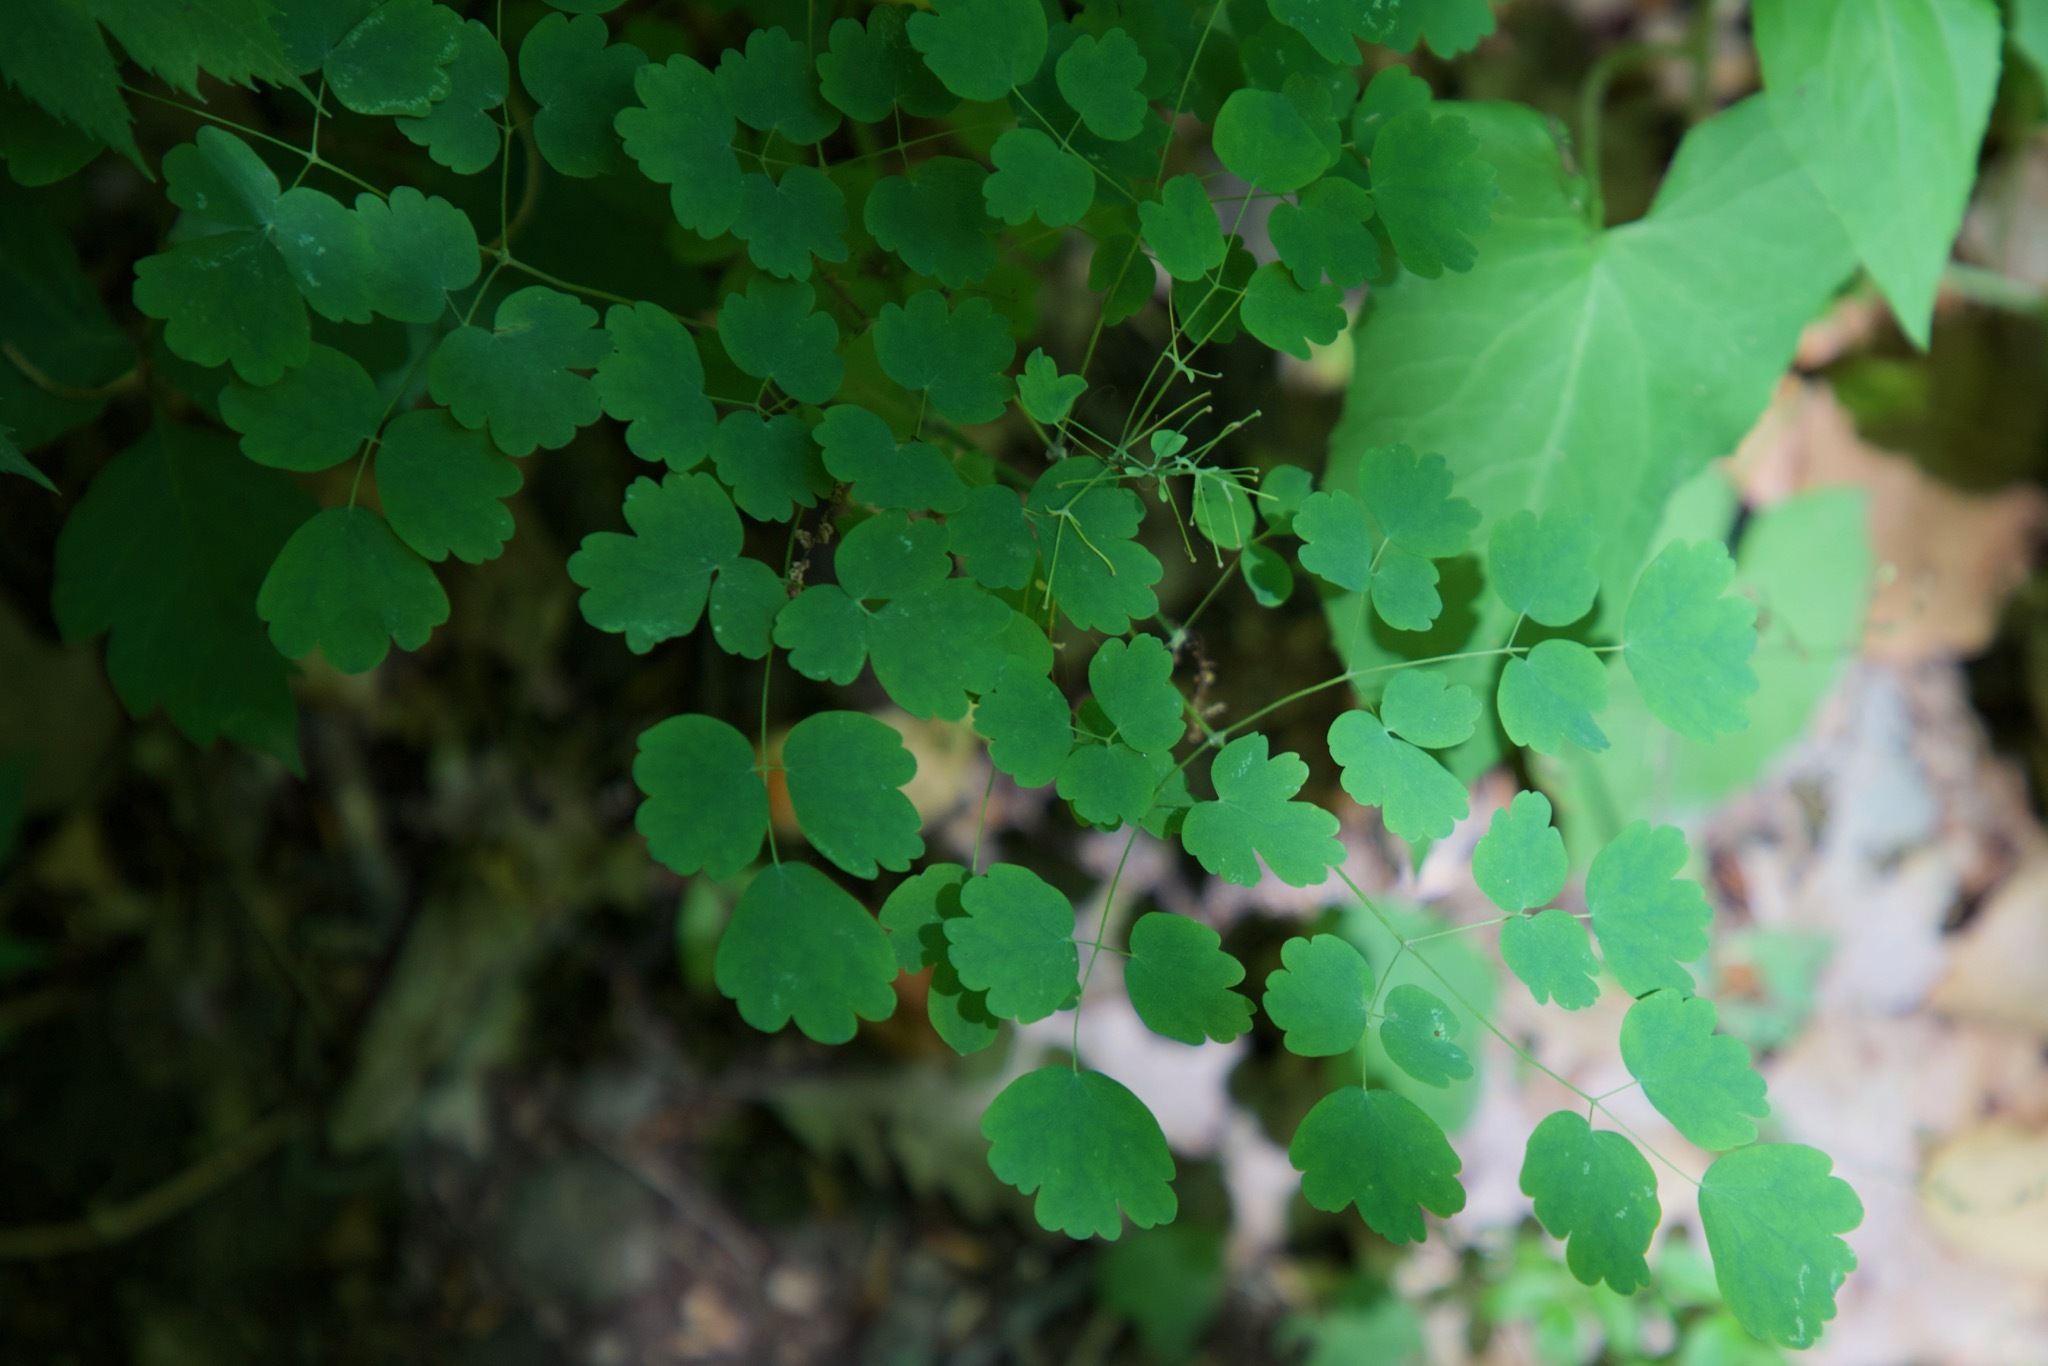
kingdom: Plantae
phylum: Tracheophyta
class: Magnoliopsida
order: Ranunculales
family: Ranunculaceae
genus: Thalictrum
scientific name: Thalictrum dioicum
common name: Early meadow-rue
